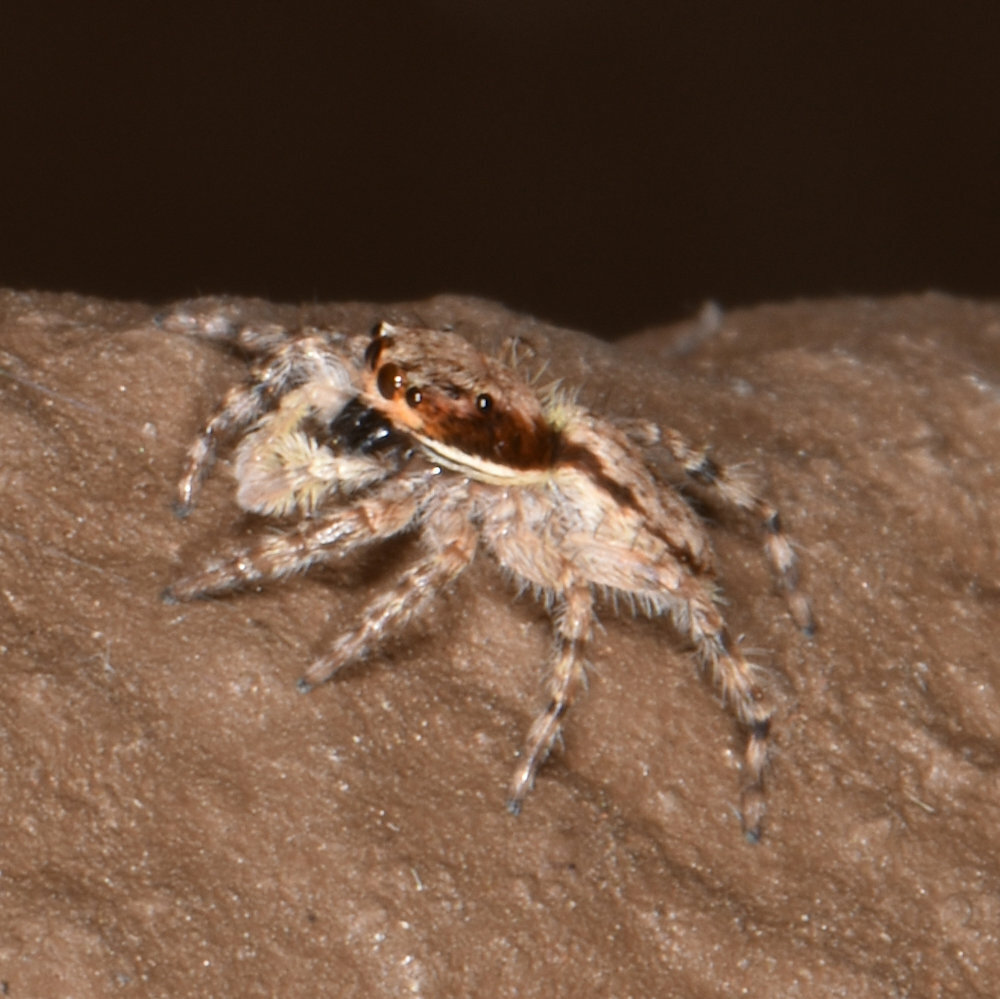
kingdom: Animalia
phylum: Arthropoda
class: Arachnida
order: Araneae
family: Salticidae
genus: Menemerus
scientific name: Menemerus bivittatus
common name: Gray wall jumper
